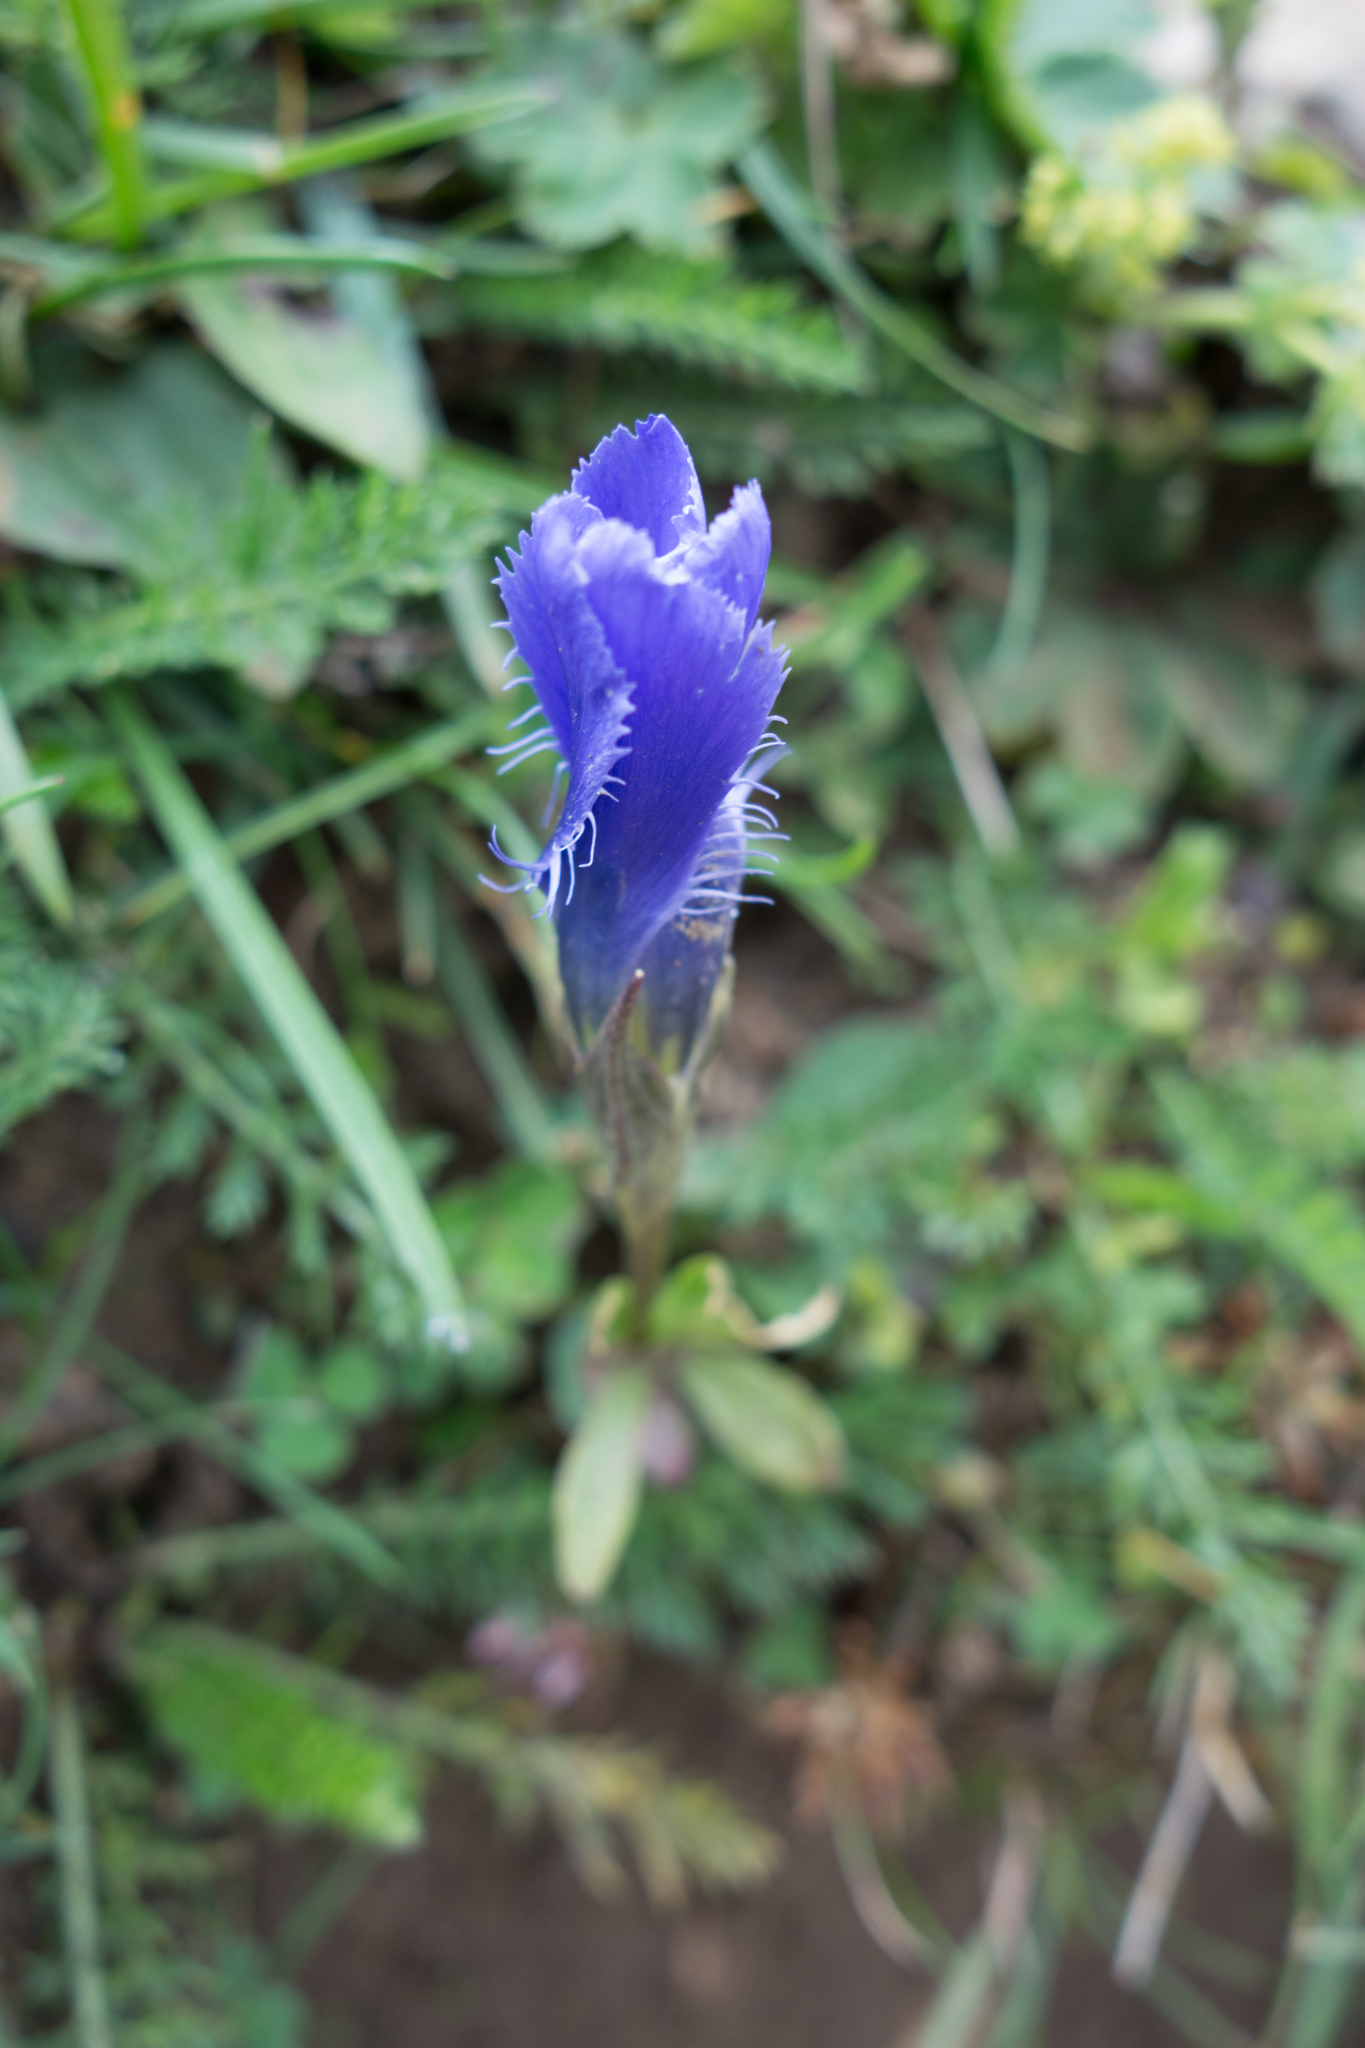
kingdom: Plantae
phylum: Tracheophyta
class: Magnoliopsida
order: Gentianales
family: Gentianaceae
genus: Gentianopsis
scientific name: Gentianopsis ciliata
